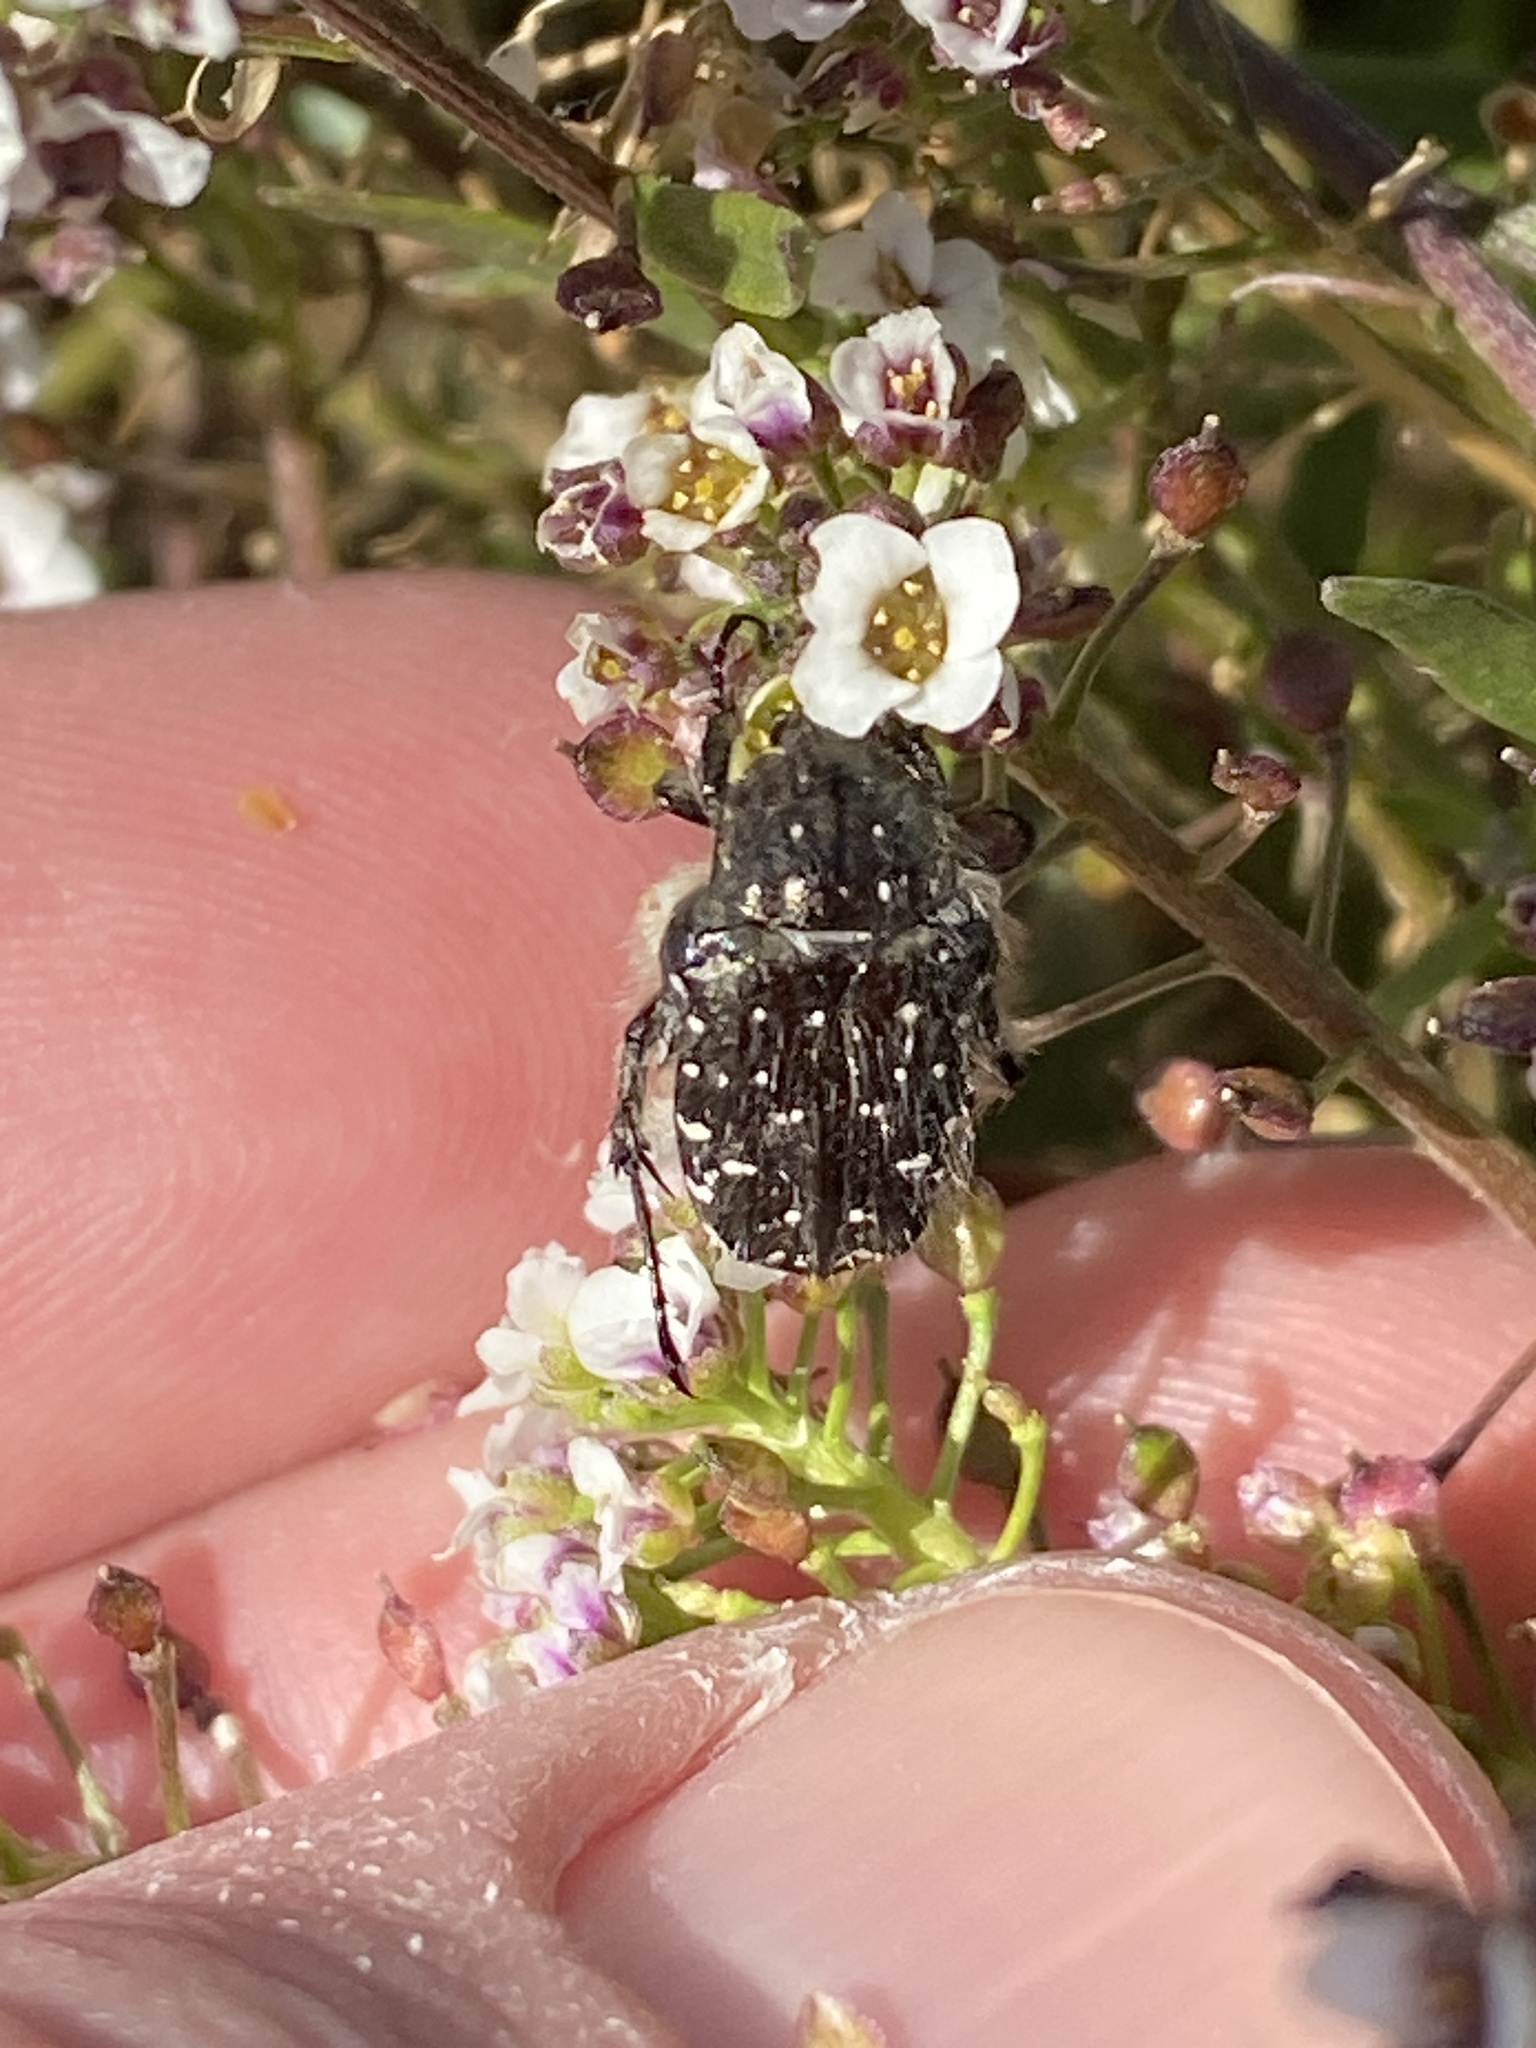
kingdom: Animalia
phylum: Arthropoda
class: Insecta
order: Coleoptera
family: Scarabaeidae
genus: Oxythyrea
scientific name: Oxythyrea funesta
